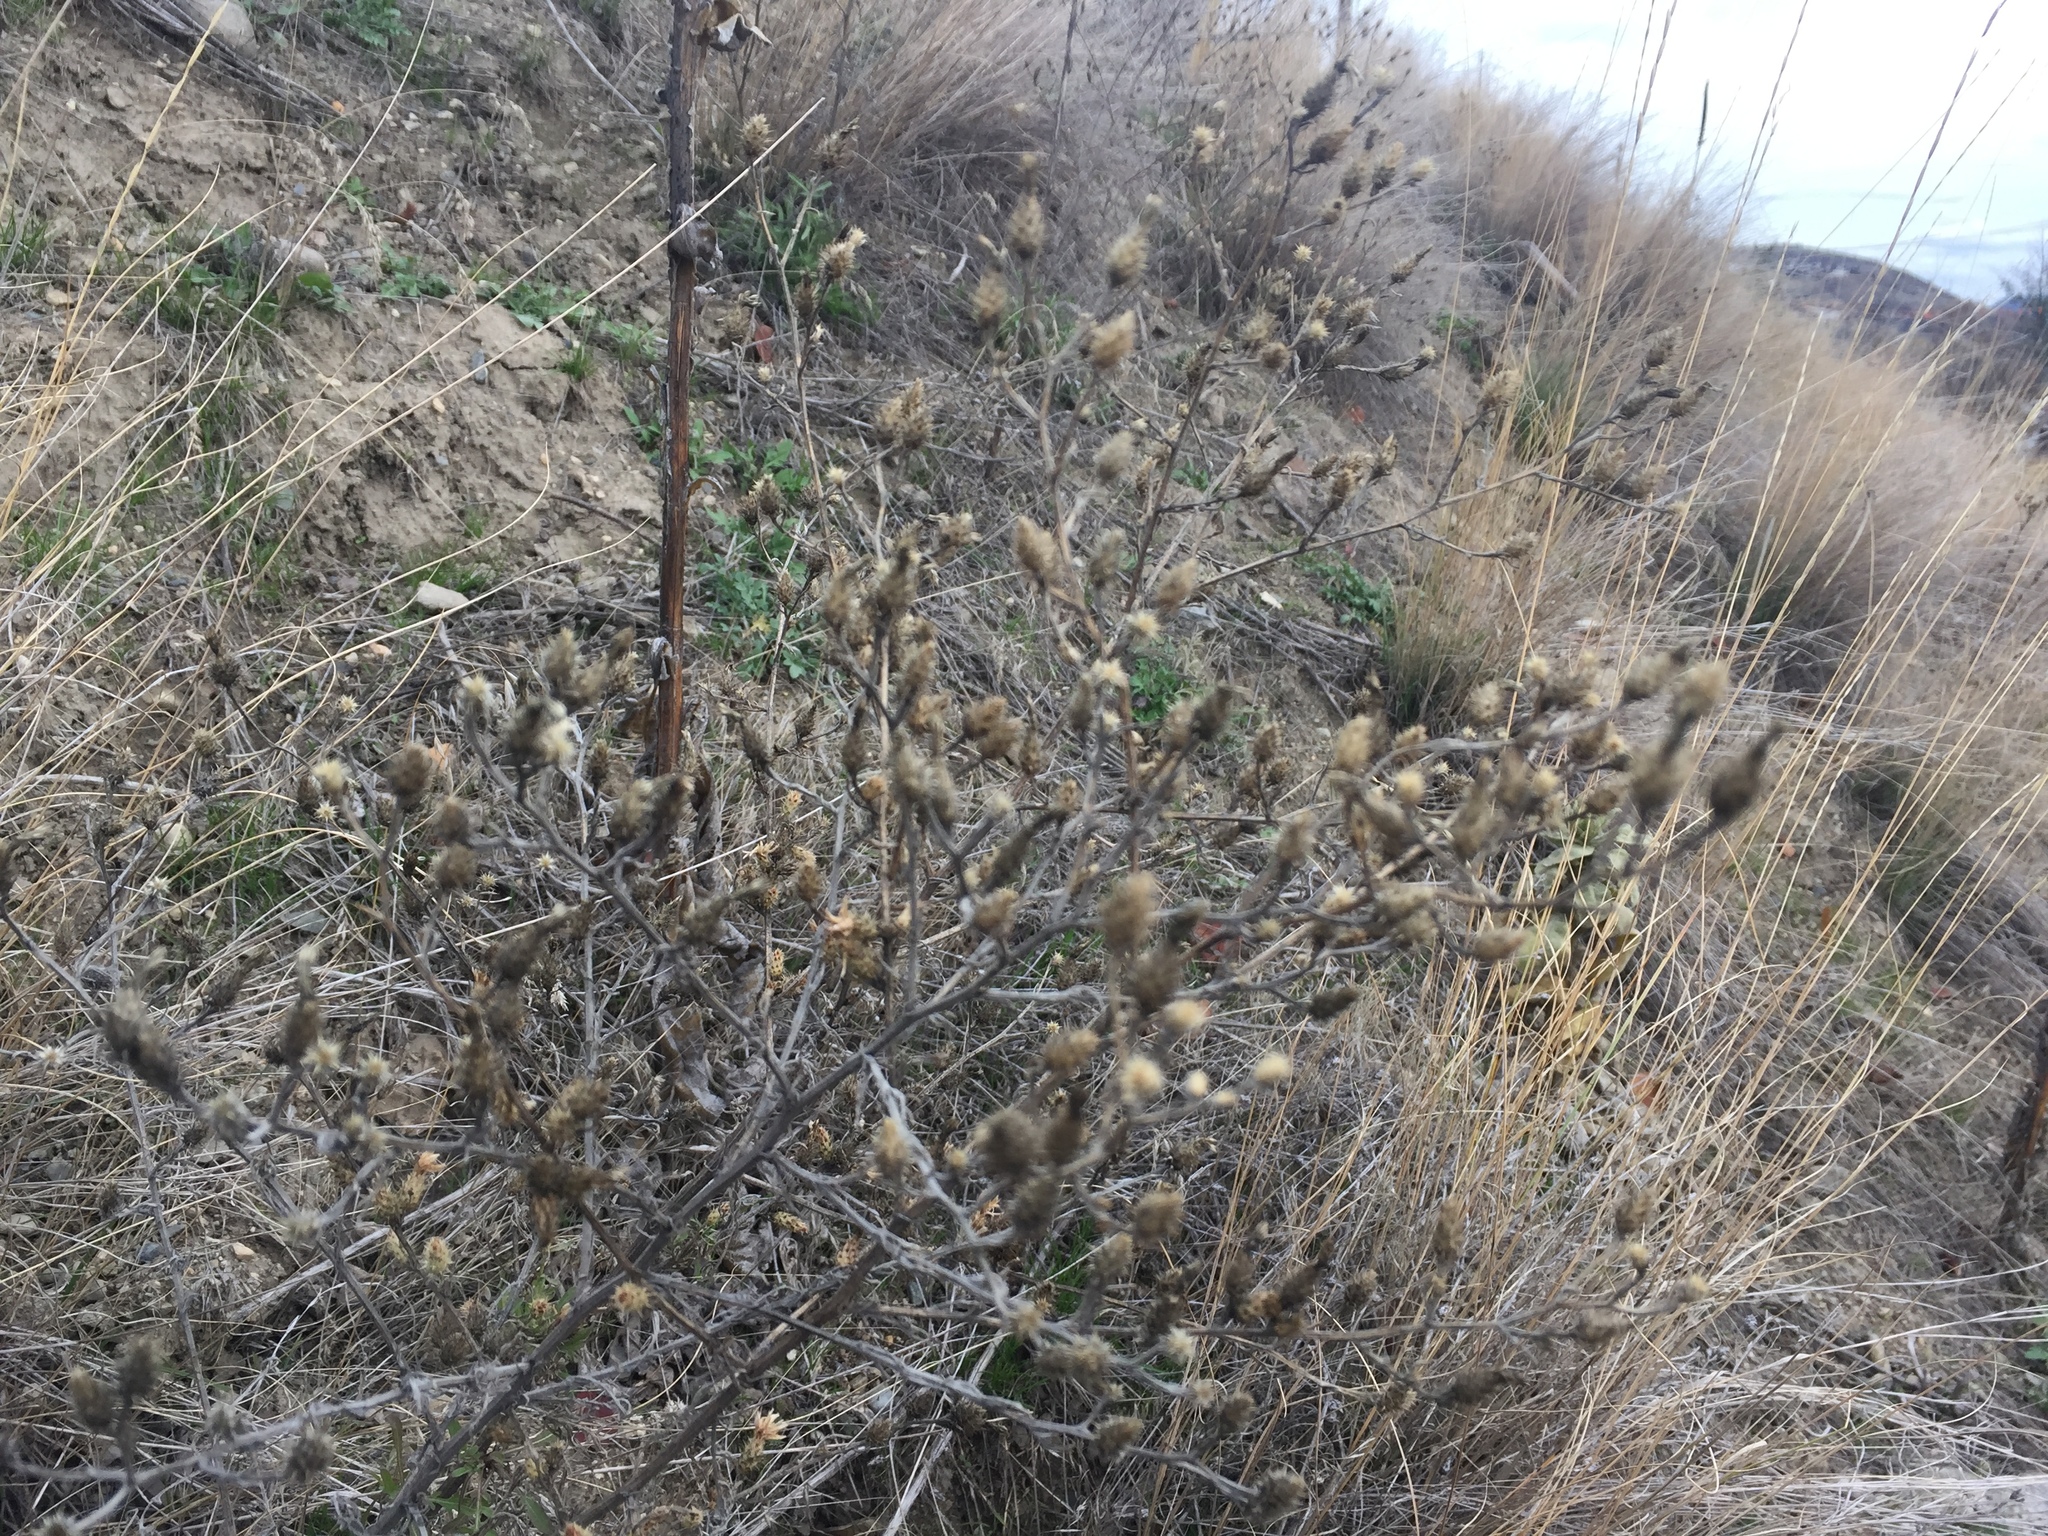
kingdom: Plantae
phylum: Tracheophyta
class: Magnoliopsida
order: Asterales
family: Asteraceae
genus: Centaurea
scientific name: Centaurea diffusa
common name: Diffuse knapweed
